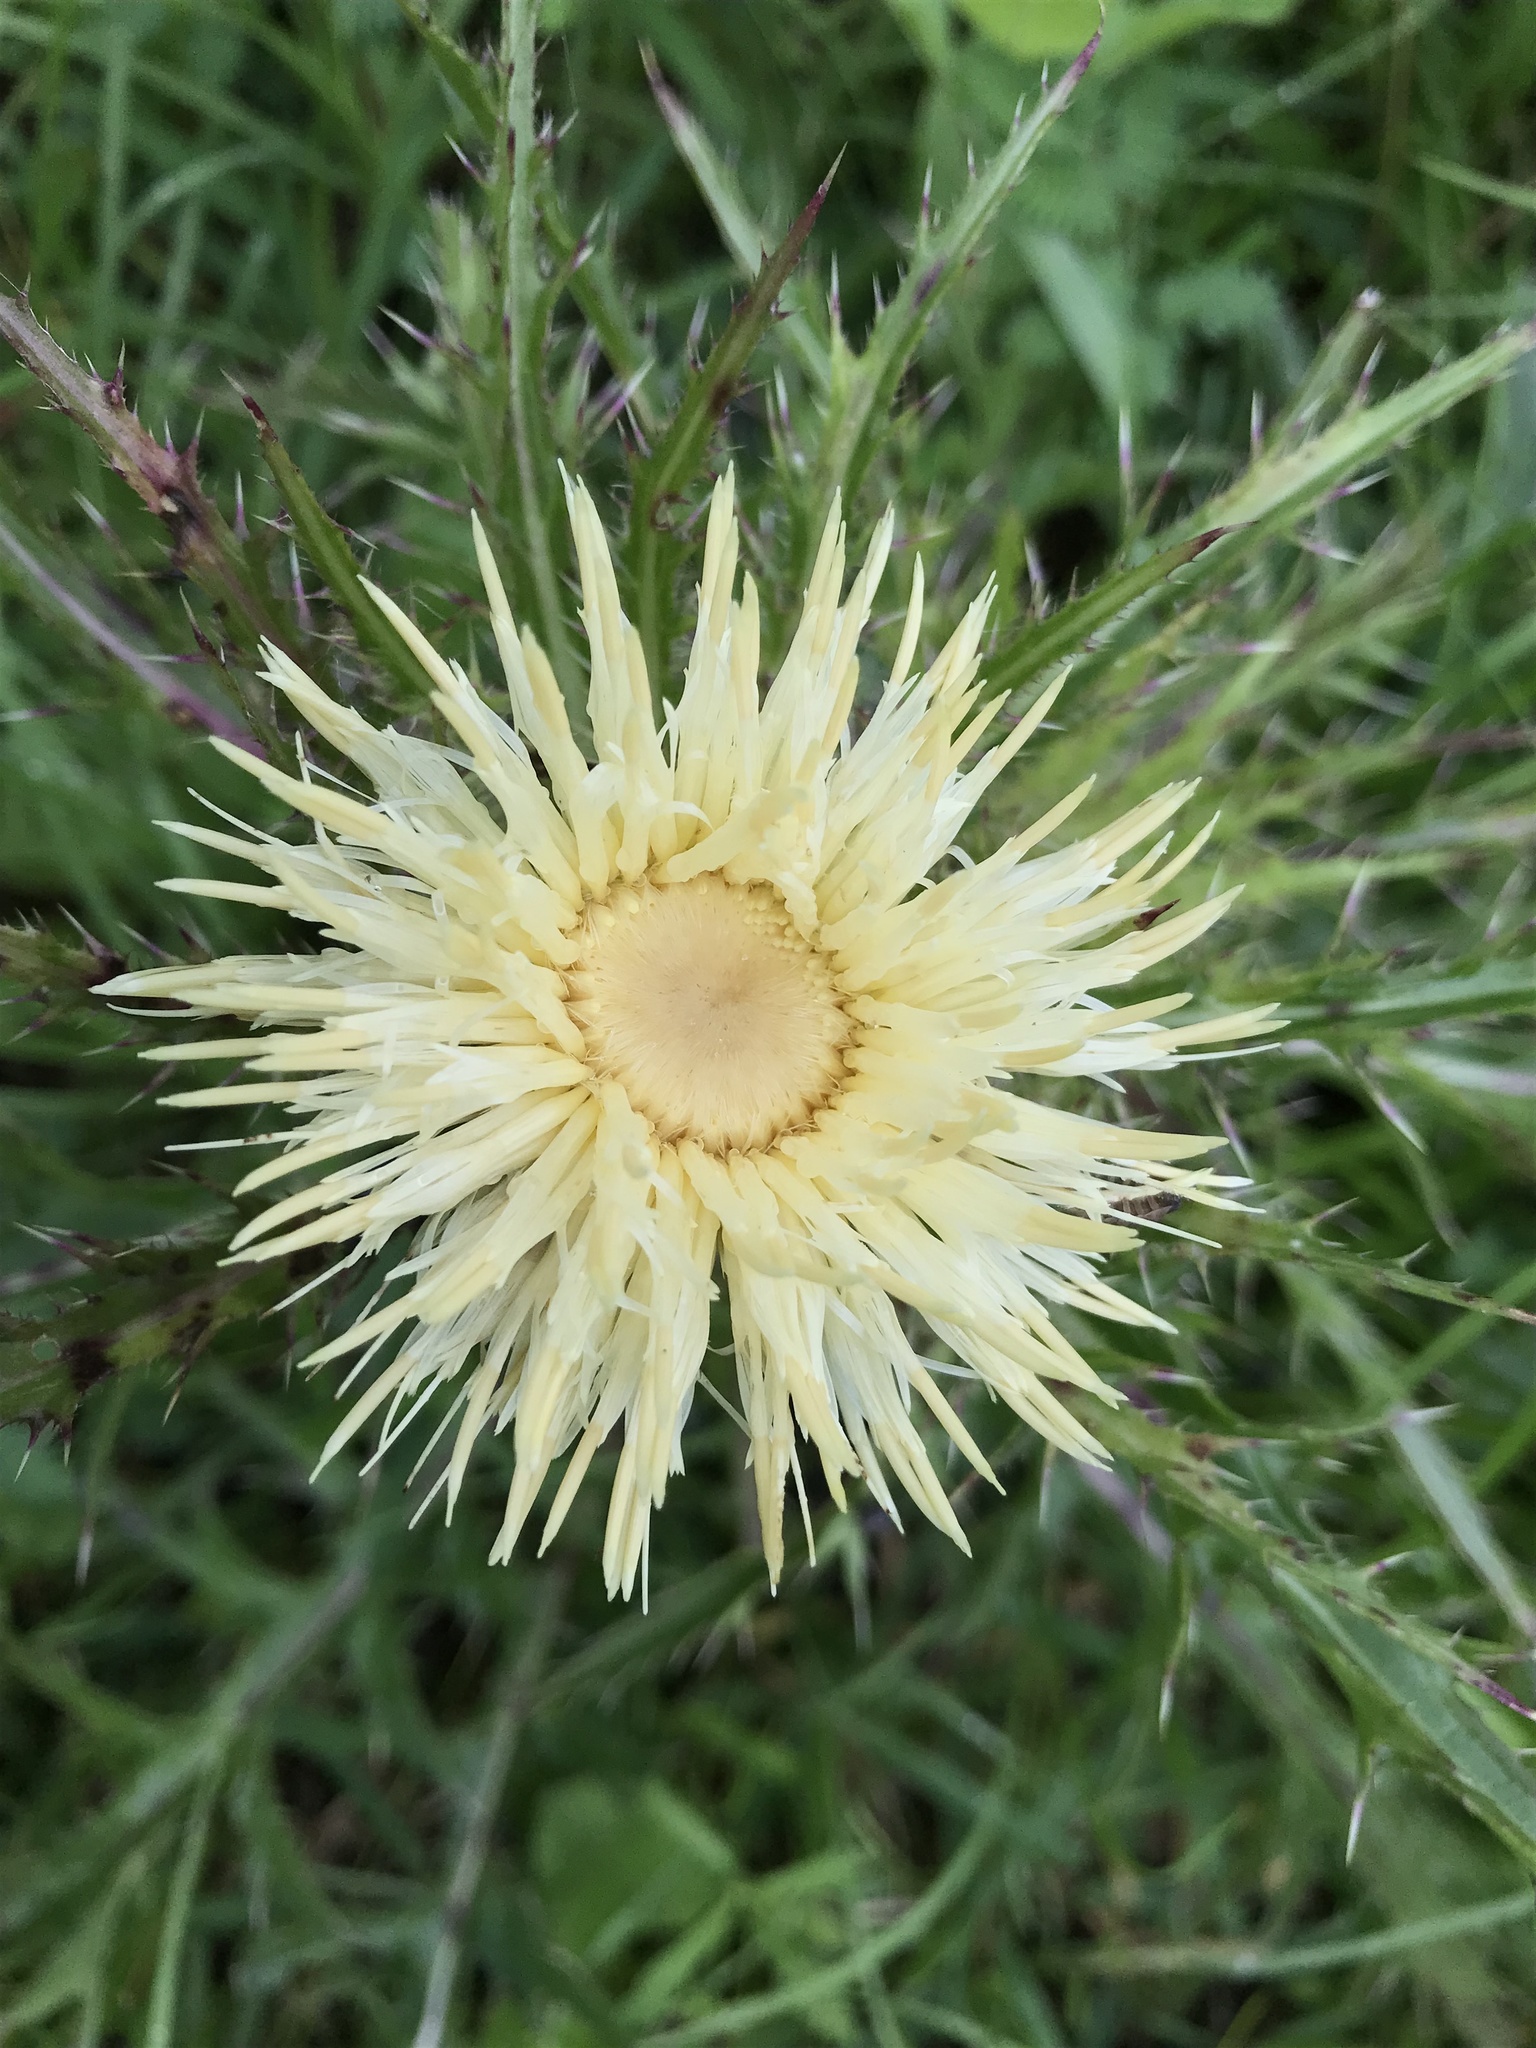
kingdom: Plantae
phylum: Tracheophyta
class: Magnoliopsida
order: Asterales
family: Asteraceae
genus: Cirsium
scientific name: Cirsium horridulum
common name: Bristly thistle
